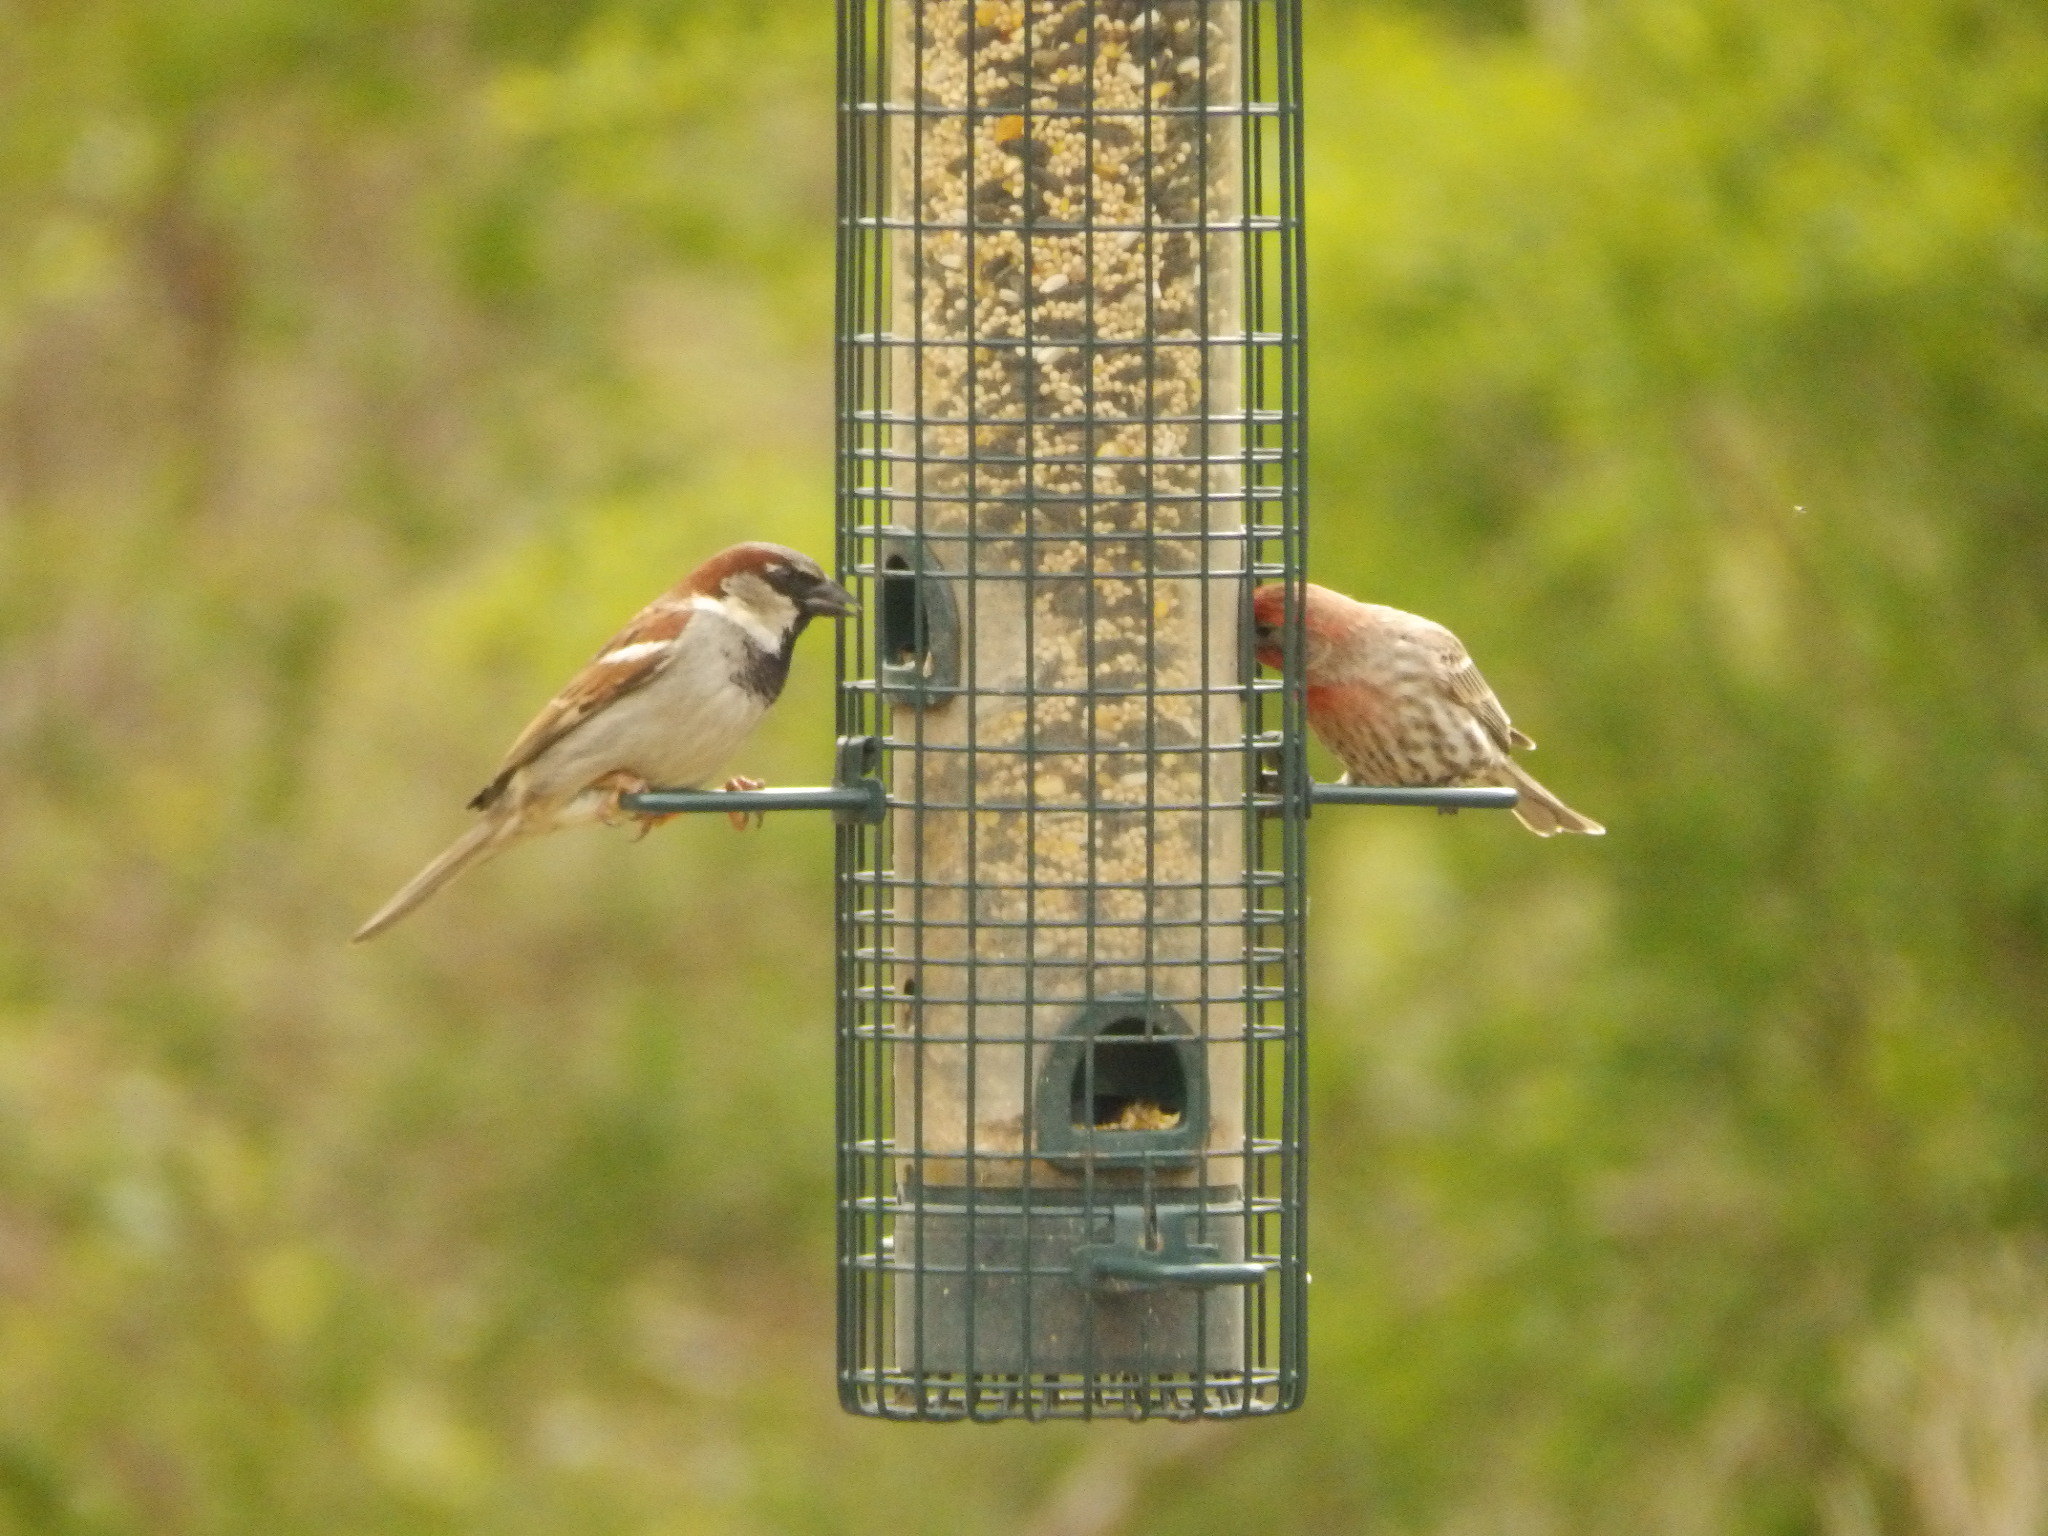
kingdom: Animalia
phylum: Chordata
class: Aves
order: Passeriformes
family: Passeridae
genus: Passer
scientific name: Passer domesticus
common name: House sparrow
